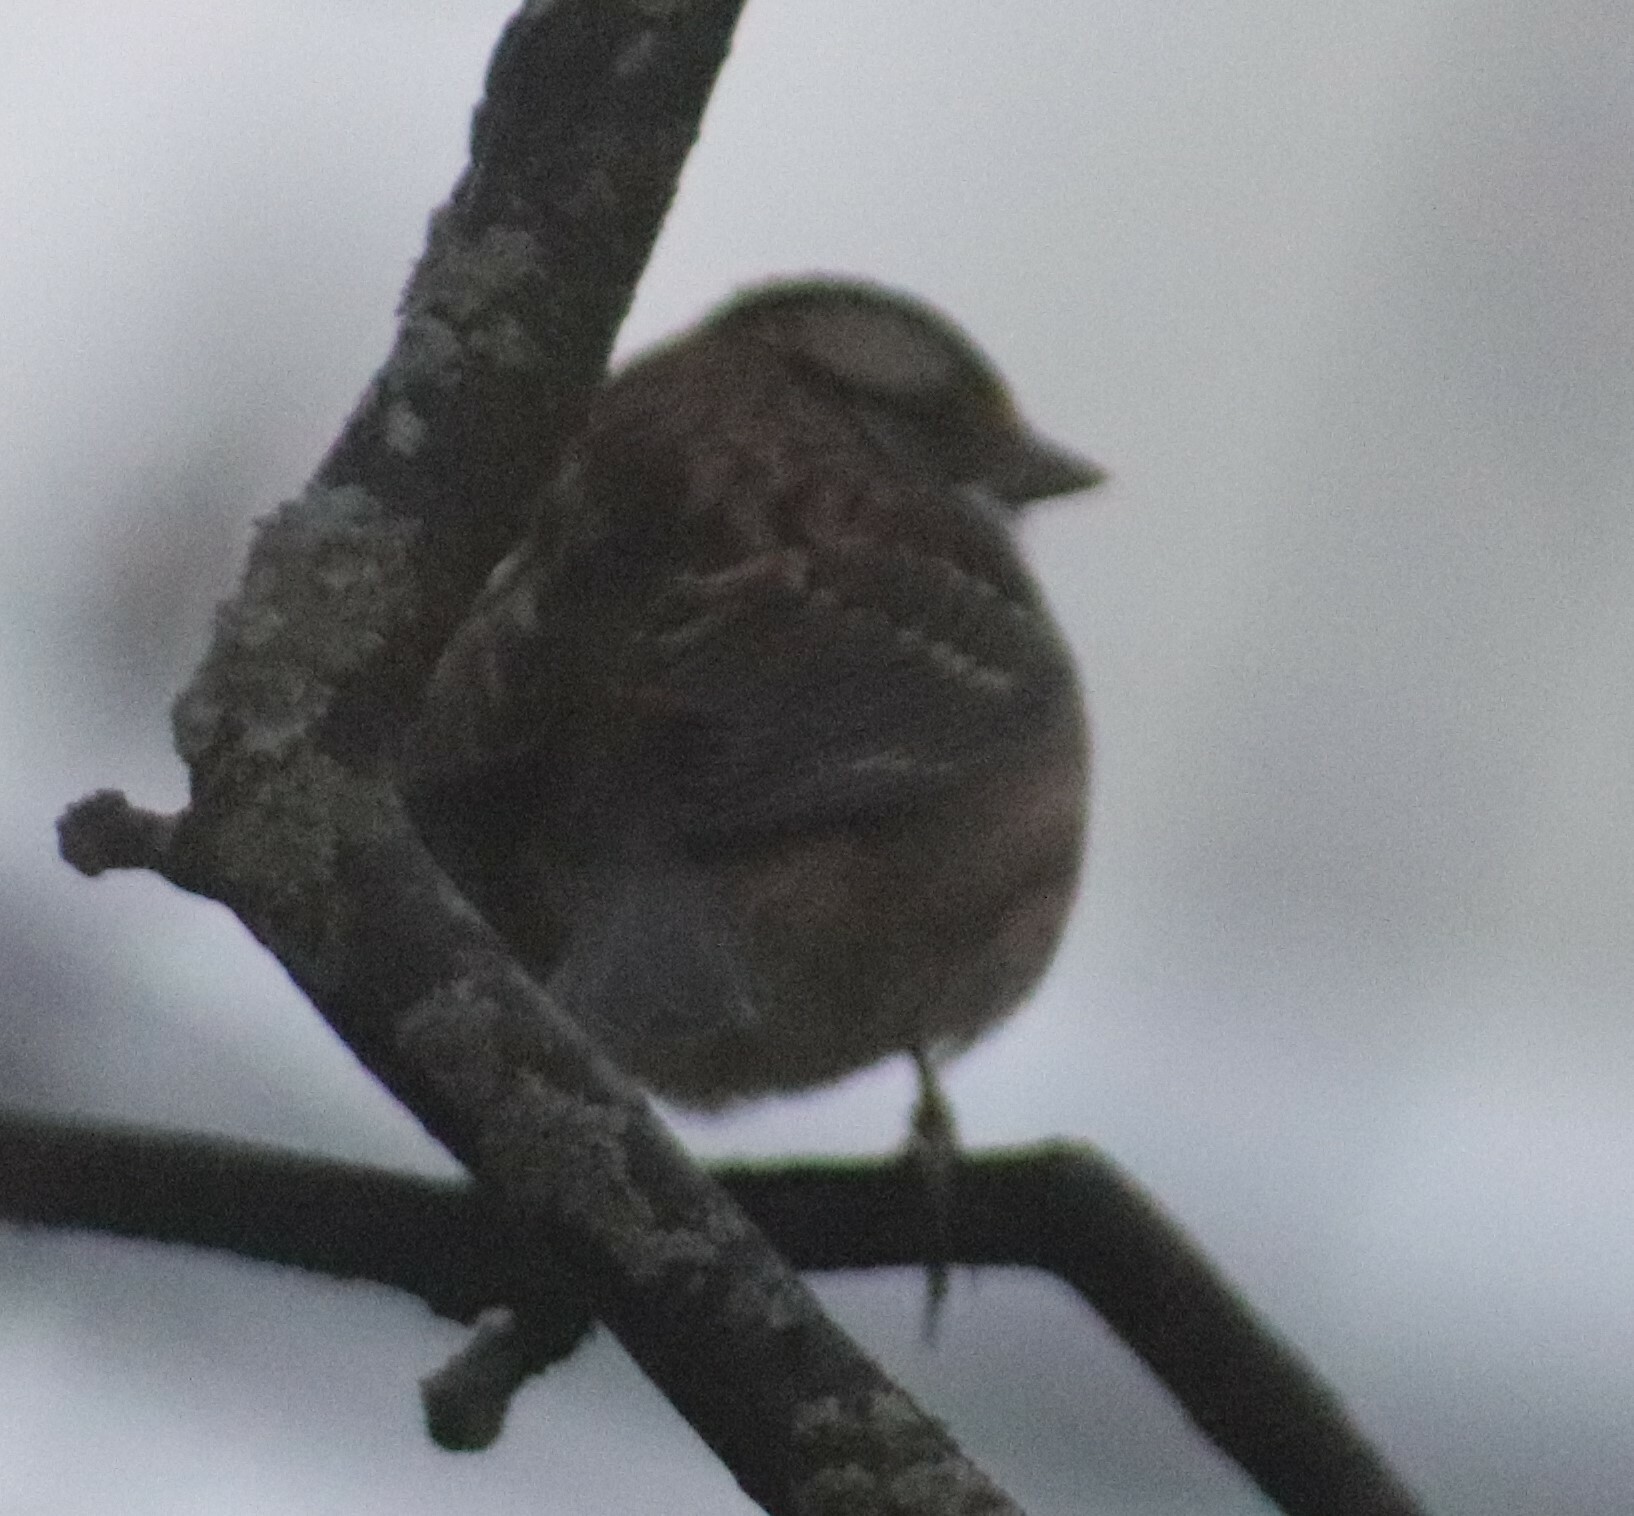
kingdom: Animalia
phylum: Chordata
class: Aves
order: Passeriformes
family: Passerellidae
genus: Zonotrichia
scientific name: Zonotrichia albicollis
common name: White-throated sparrow
